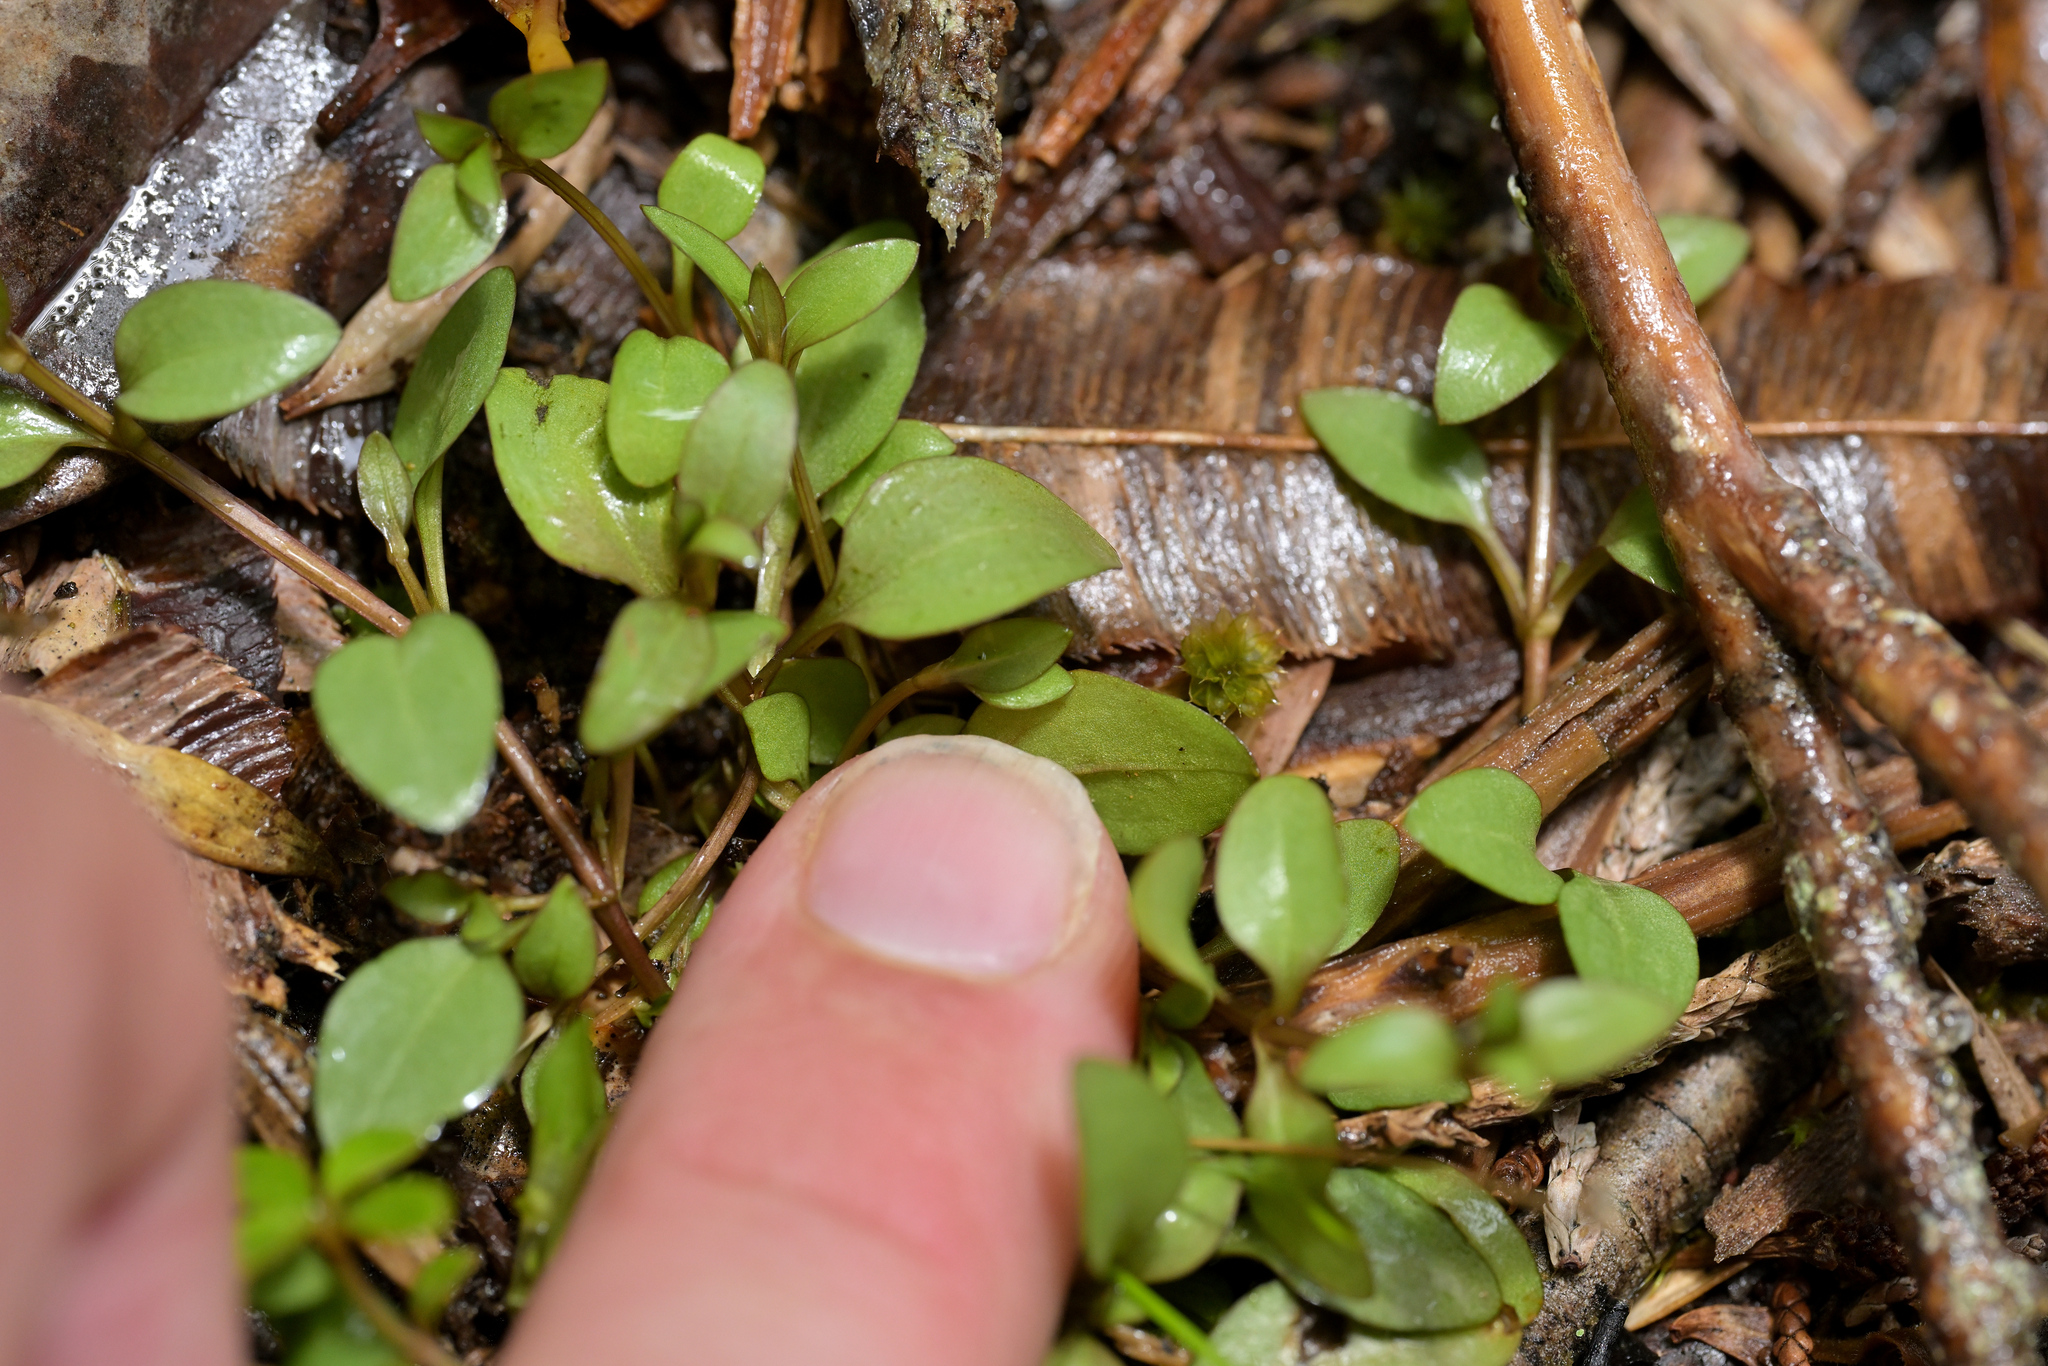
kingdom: Plantae
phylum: Tracheophyta
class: Magnoliopsida
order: Gentianales
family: Gentianaceae
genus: Gentianella
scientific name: Gentianella chathamica
